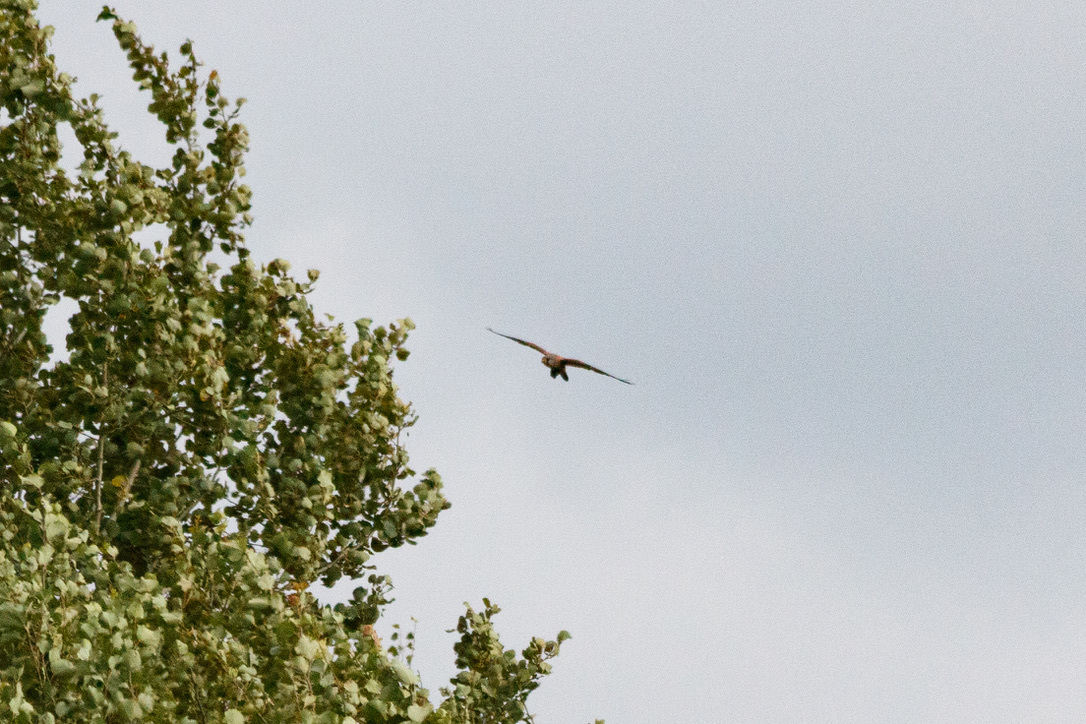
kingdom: Animalia
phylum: Chordata
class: Aves
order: Falconiformes
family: Falconidae
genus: Falco
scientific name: Falco tinnunculus
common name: Common kestrel
